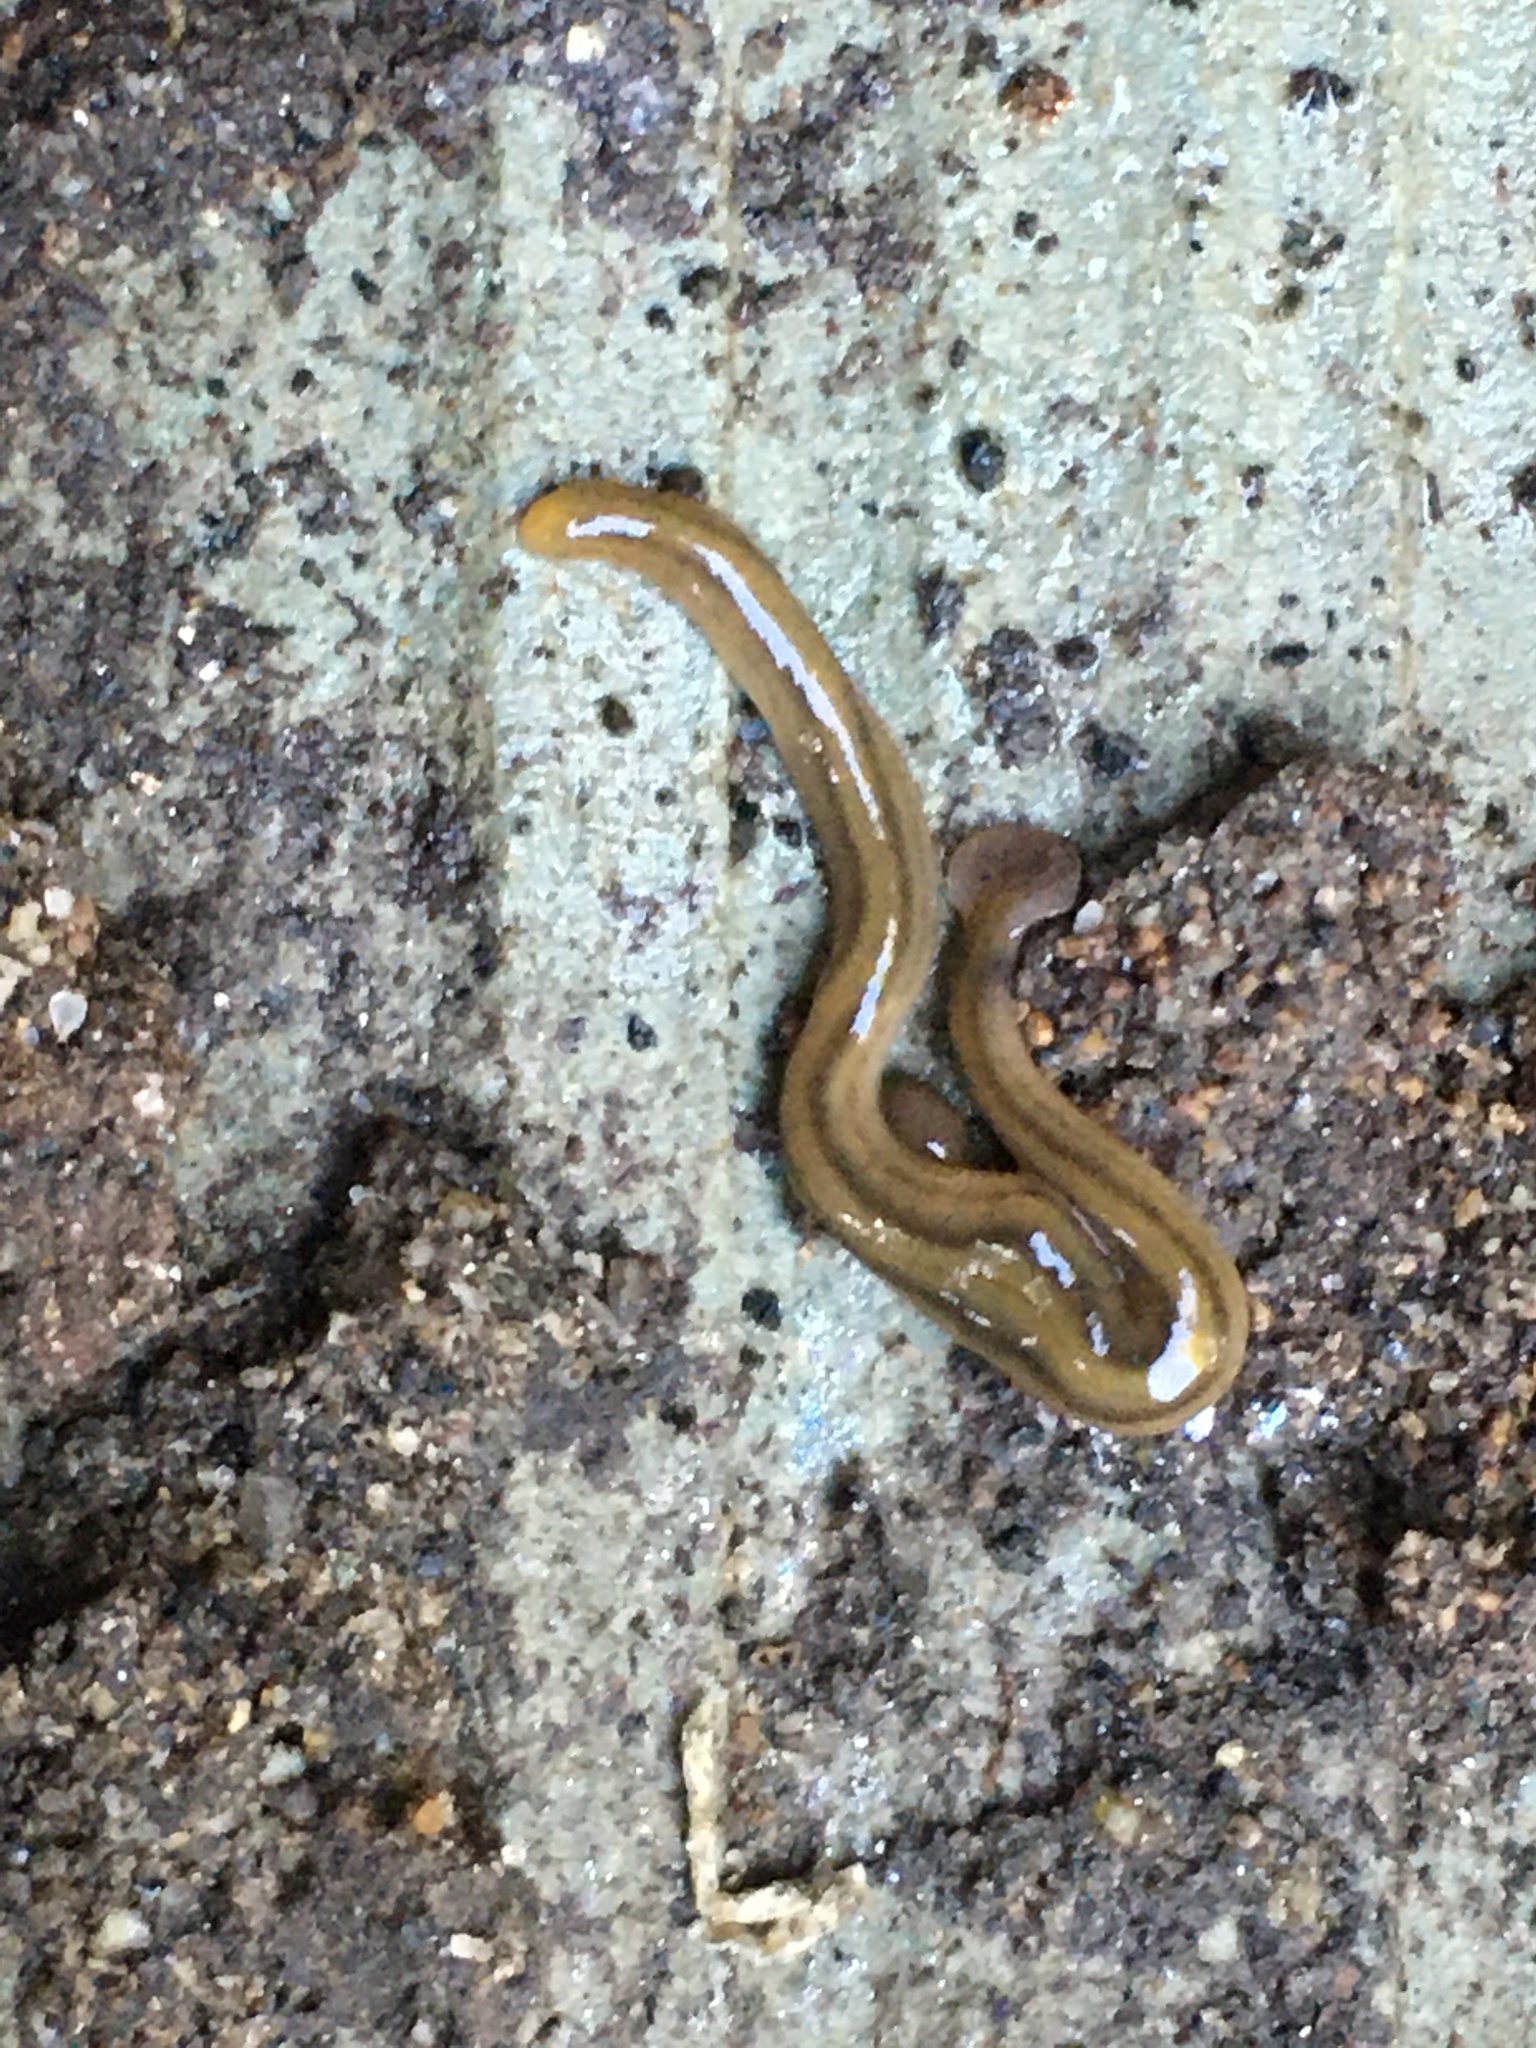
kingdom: Animalia
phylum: Platyhelminthes
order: Tricladida
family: Geoplanidae
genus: Bipalium
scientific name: Bipalium kewense
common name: Hammerhead flatworm
